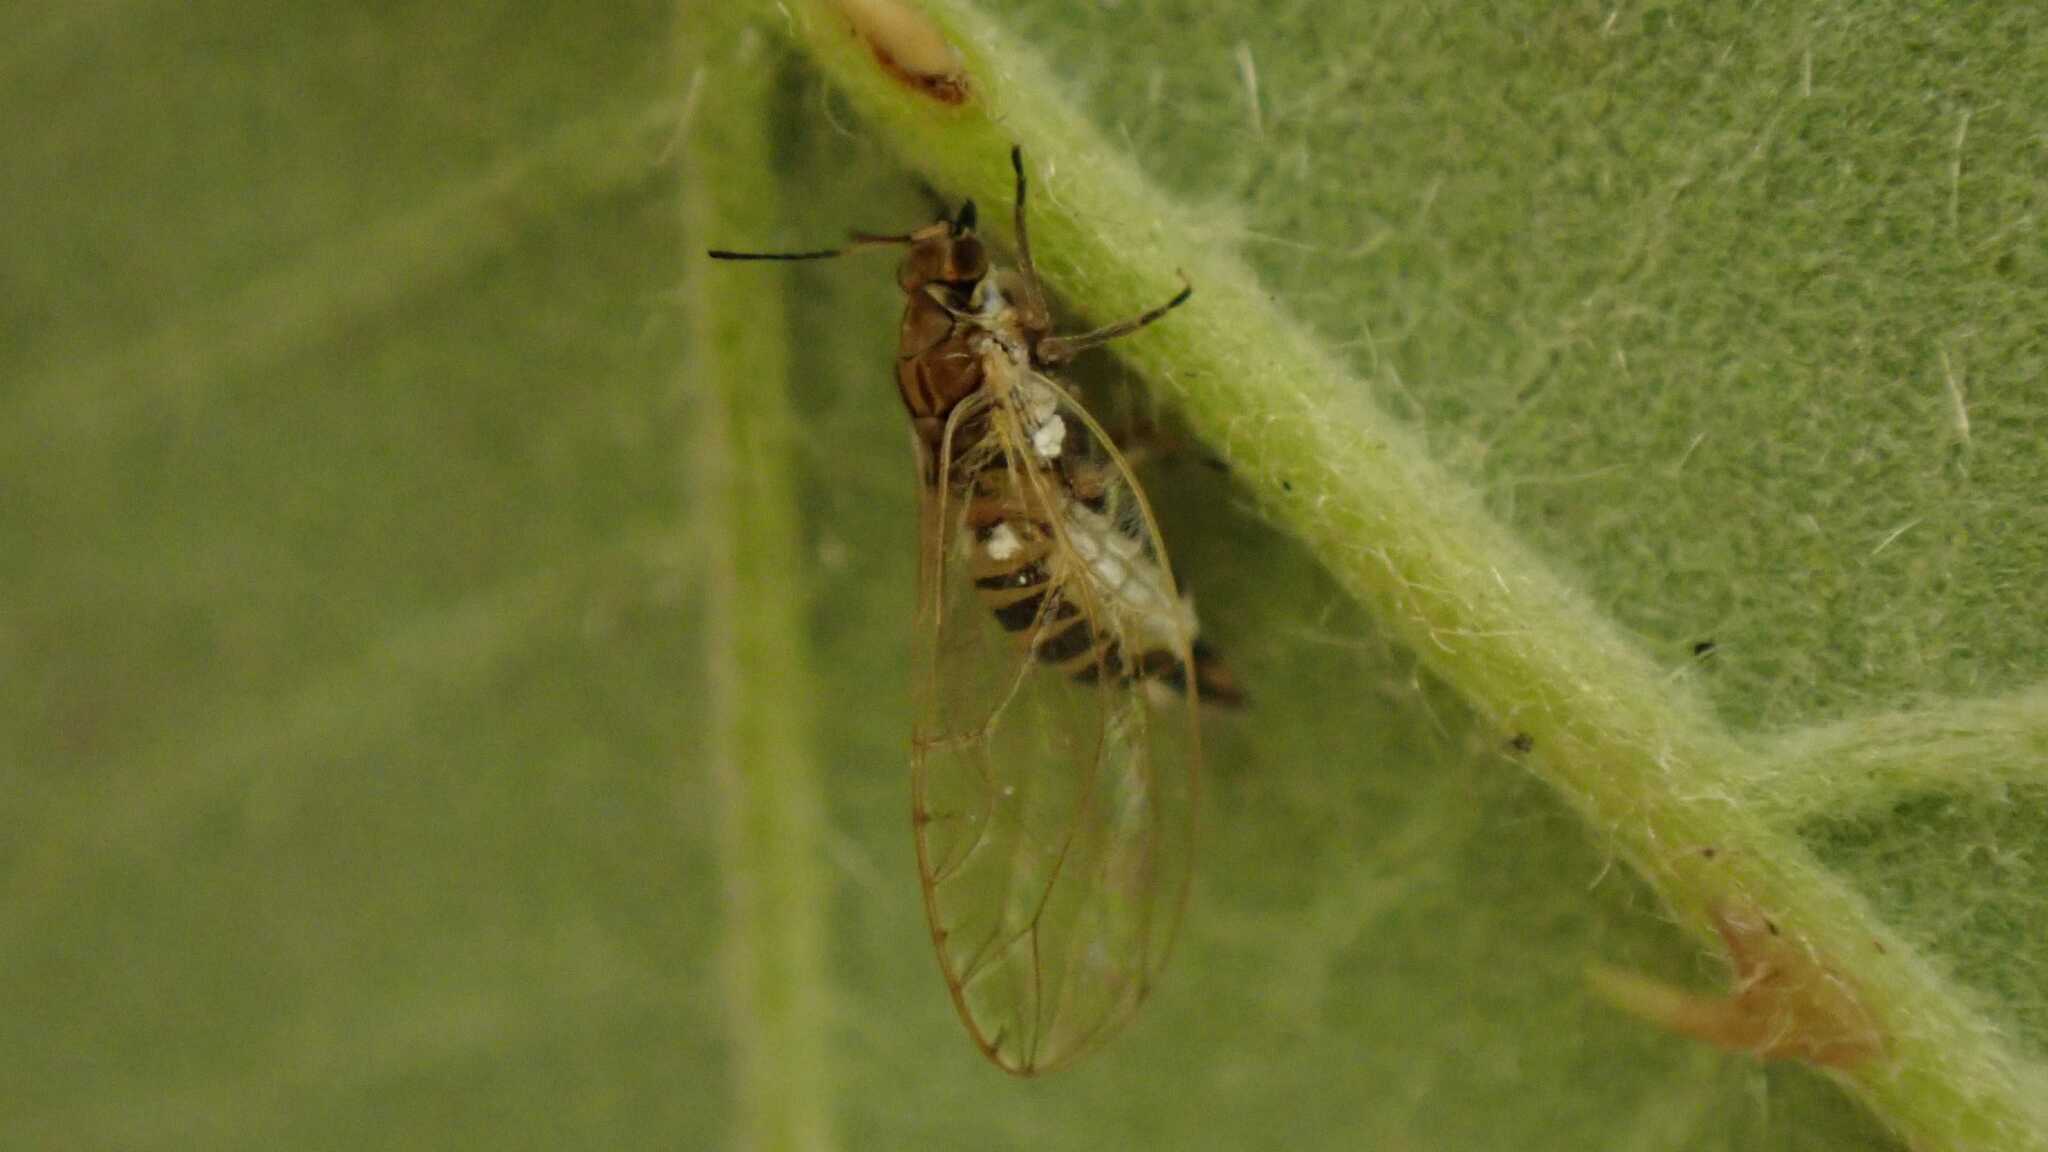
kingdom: Animalia
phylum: Arthropoda
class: Insecta
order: Hemiptera
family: Triozidae
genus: Trioza
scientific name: Trioza urticae
